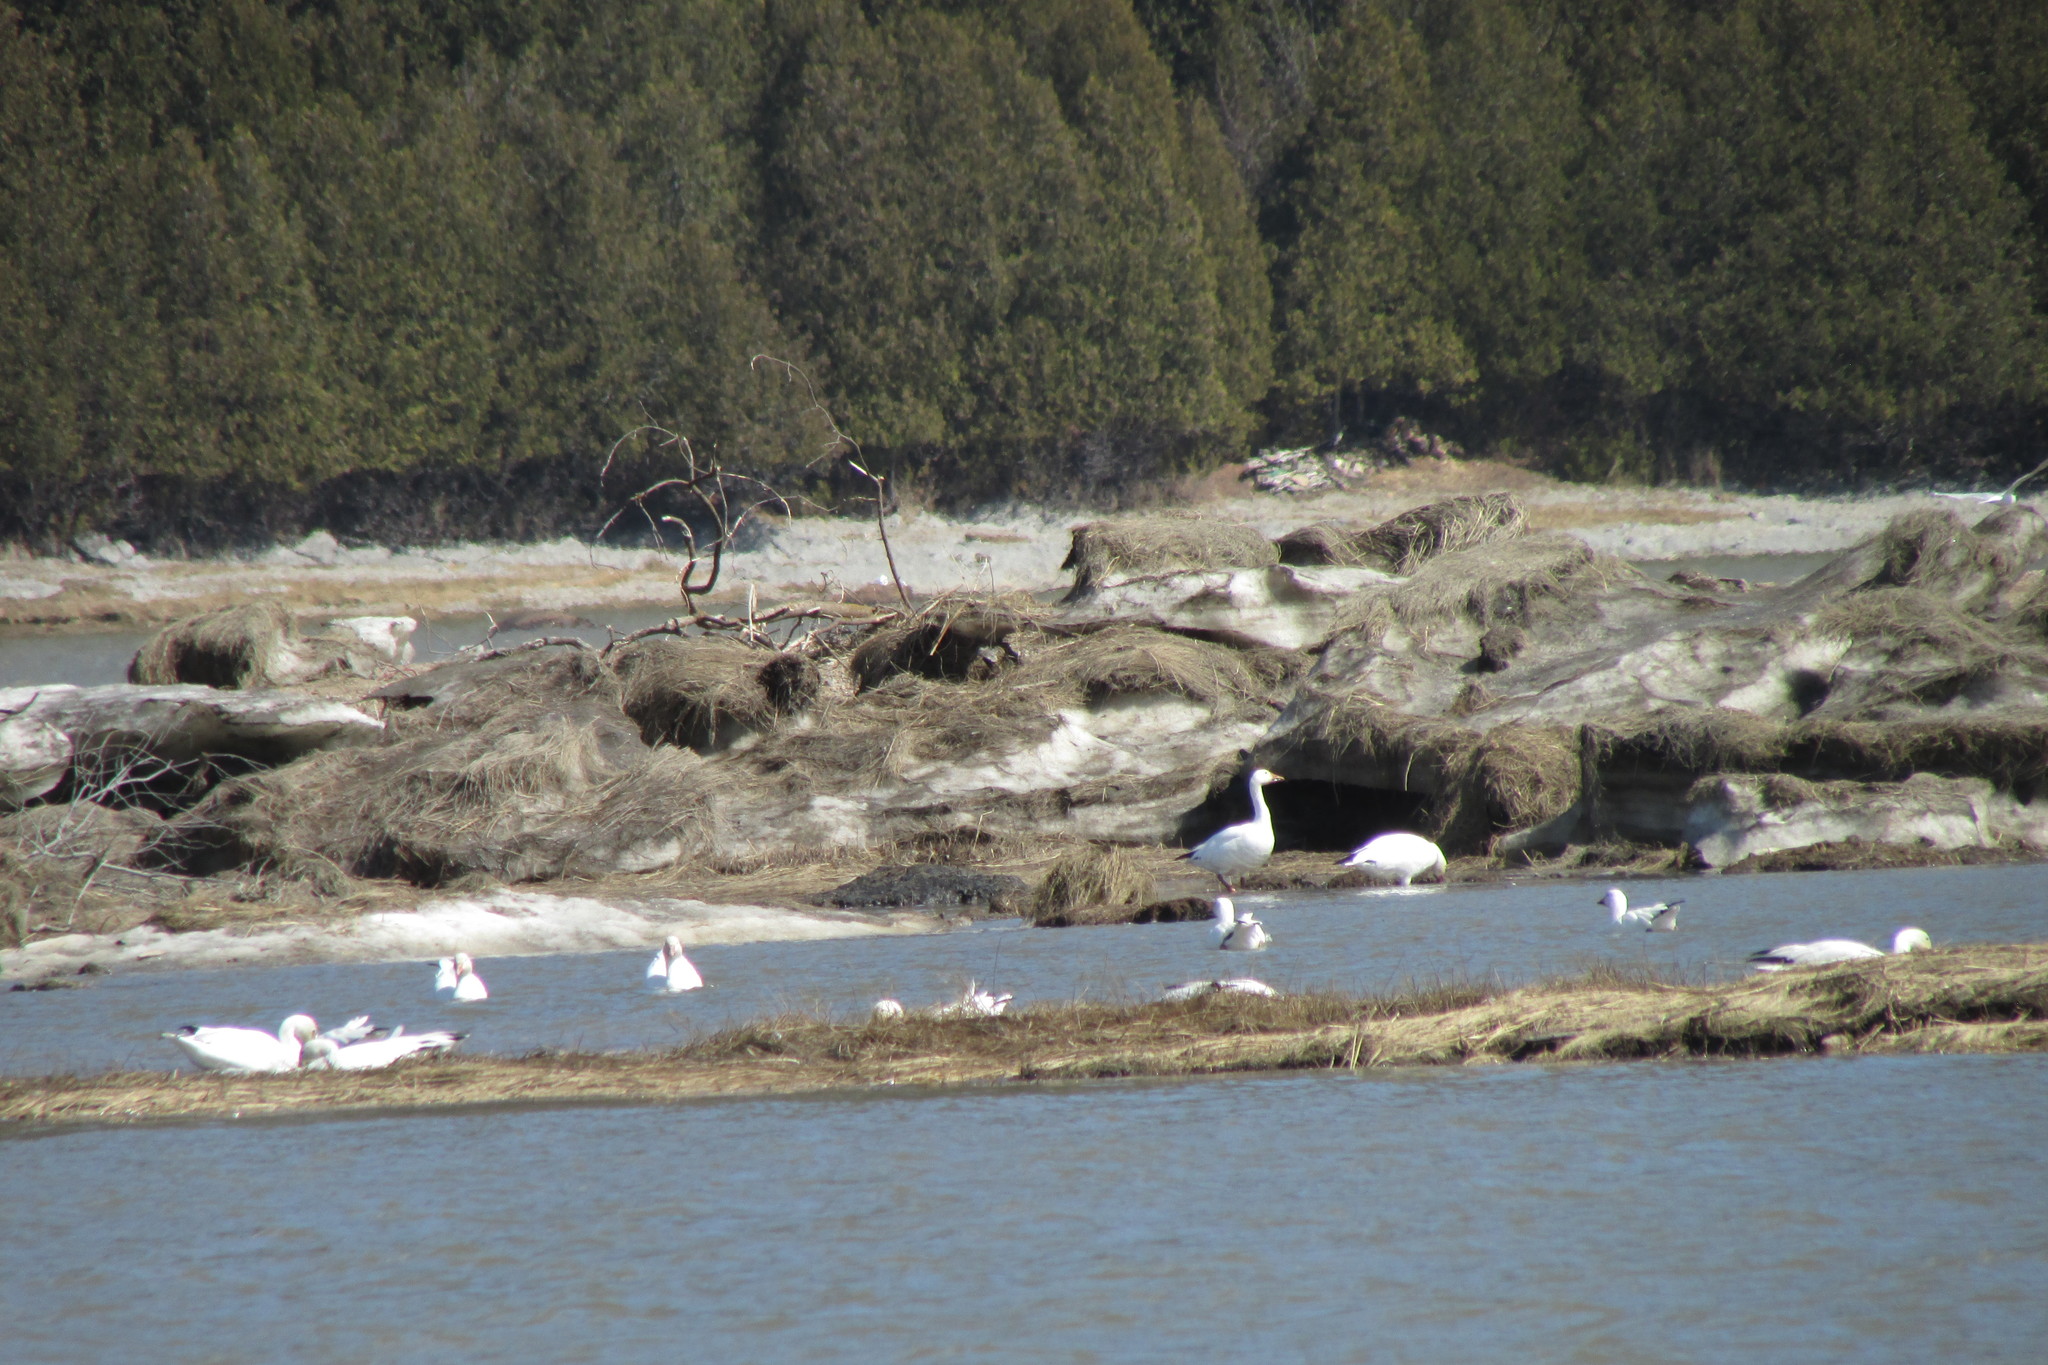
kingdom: Animalia
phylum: Chordata
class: Aves
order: Anseriformes
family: Anatidae
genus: Anser
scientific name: Anser caerulescens
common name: Snow goose
